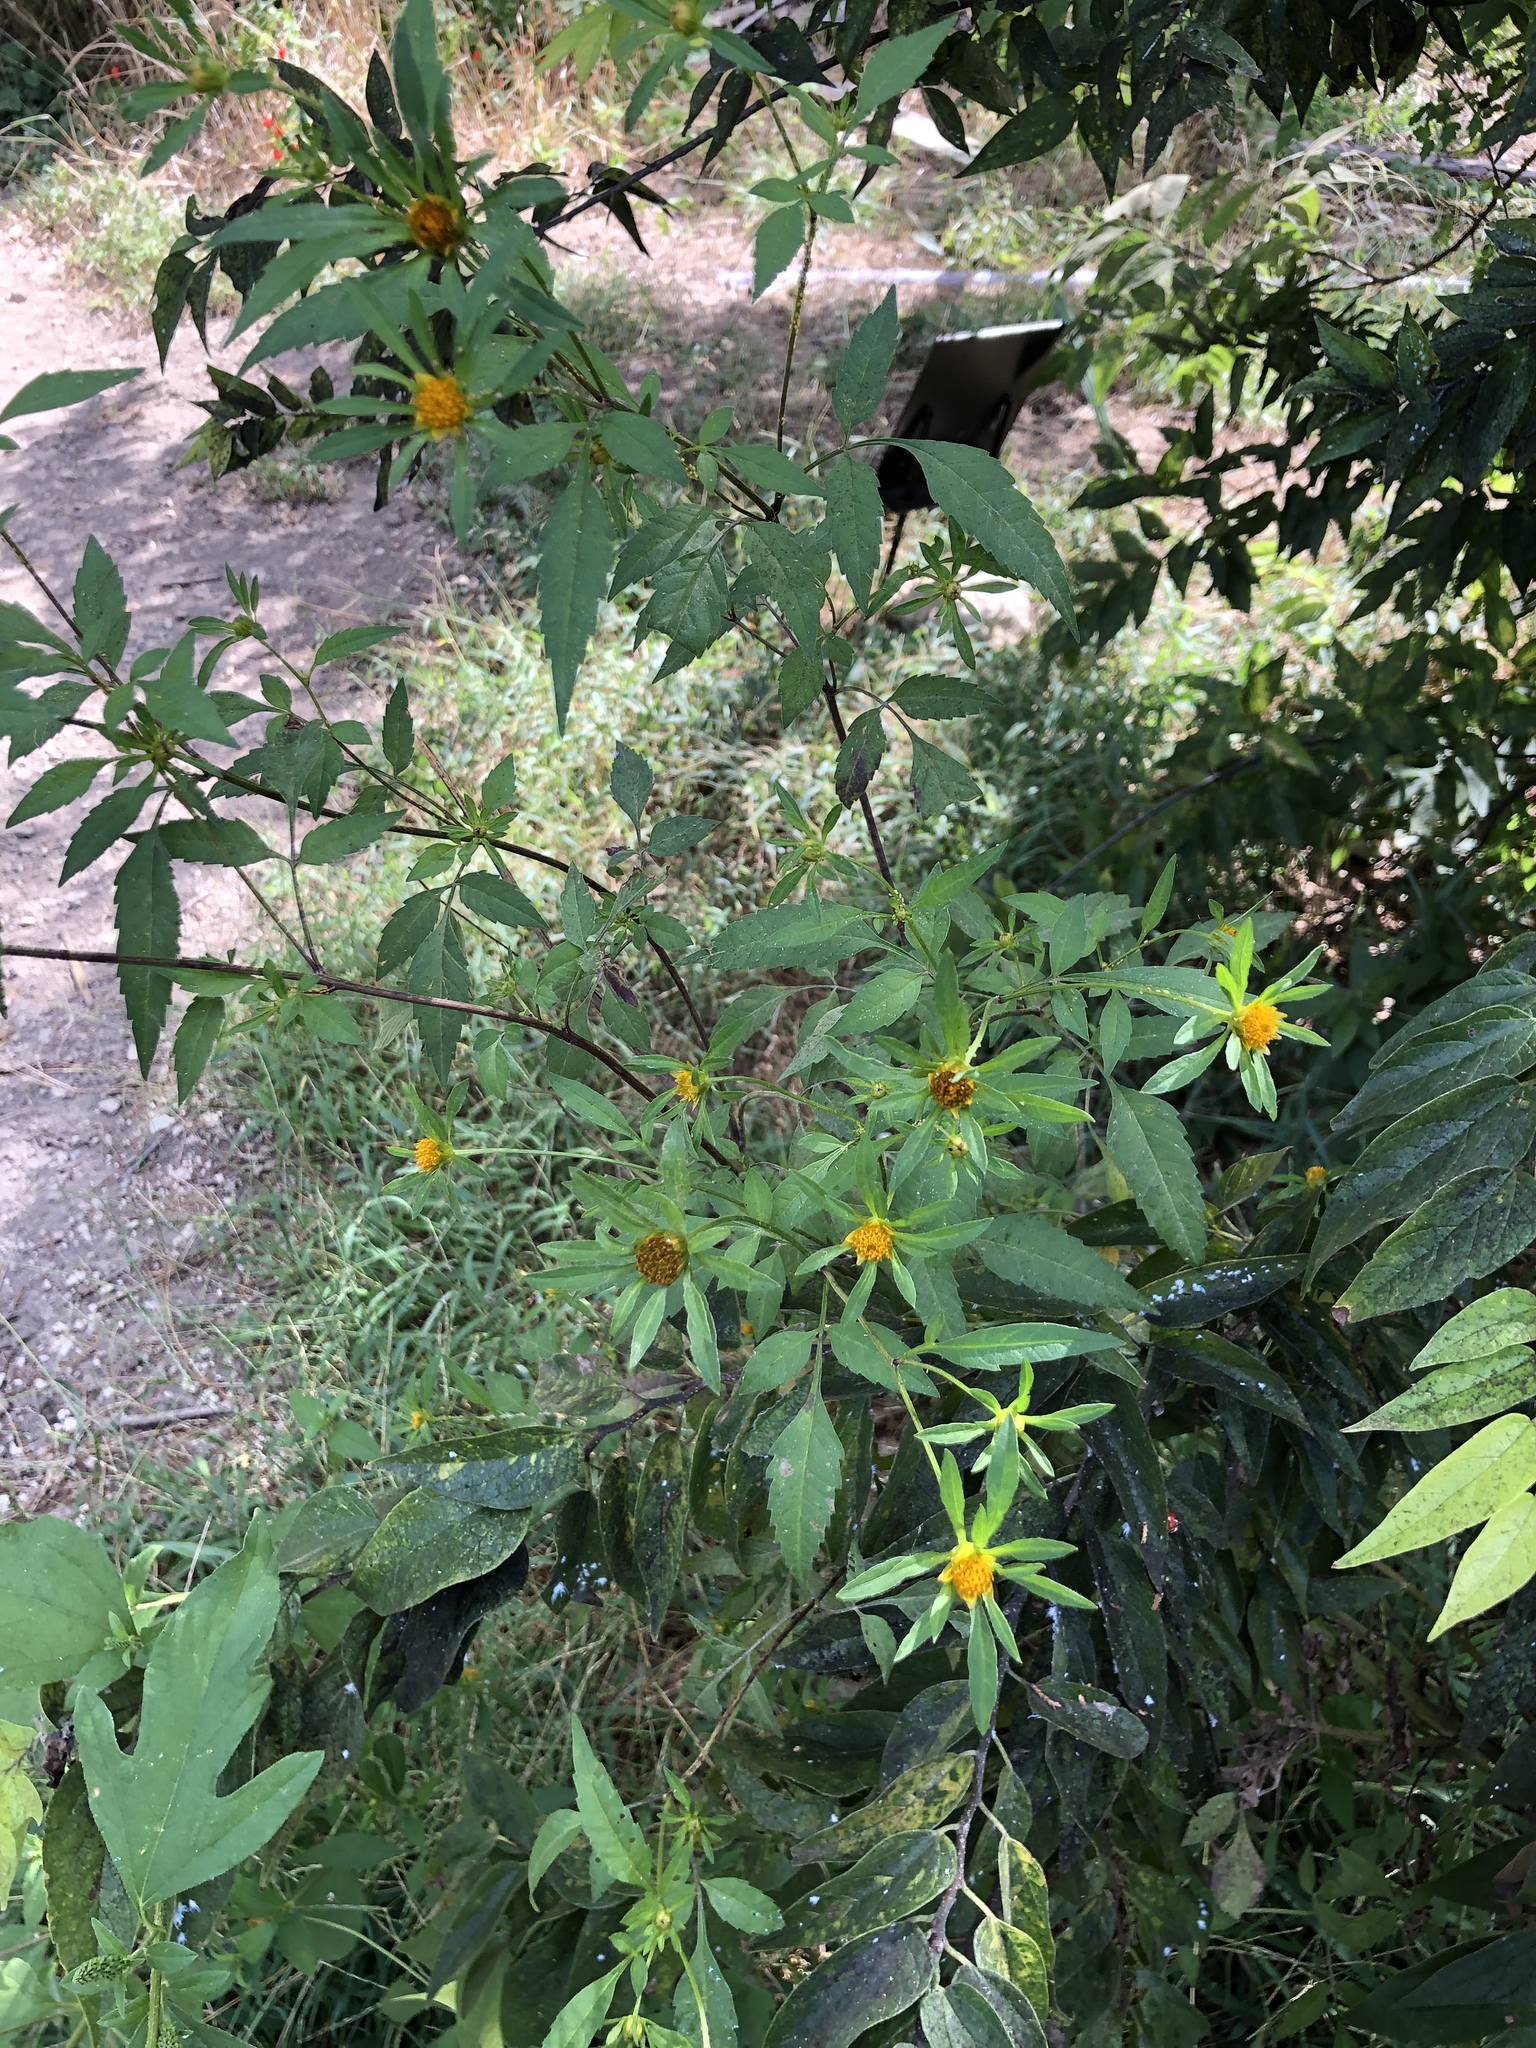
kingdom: Plantae
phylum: Tracheophyta
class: Magnoliopsida
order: Asterales
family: Asteraceae
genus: Bidens
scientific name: Bidens frondosa
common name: Beggarticks
